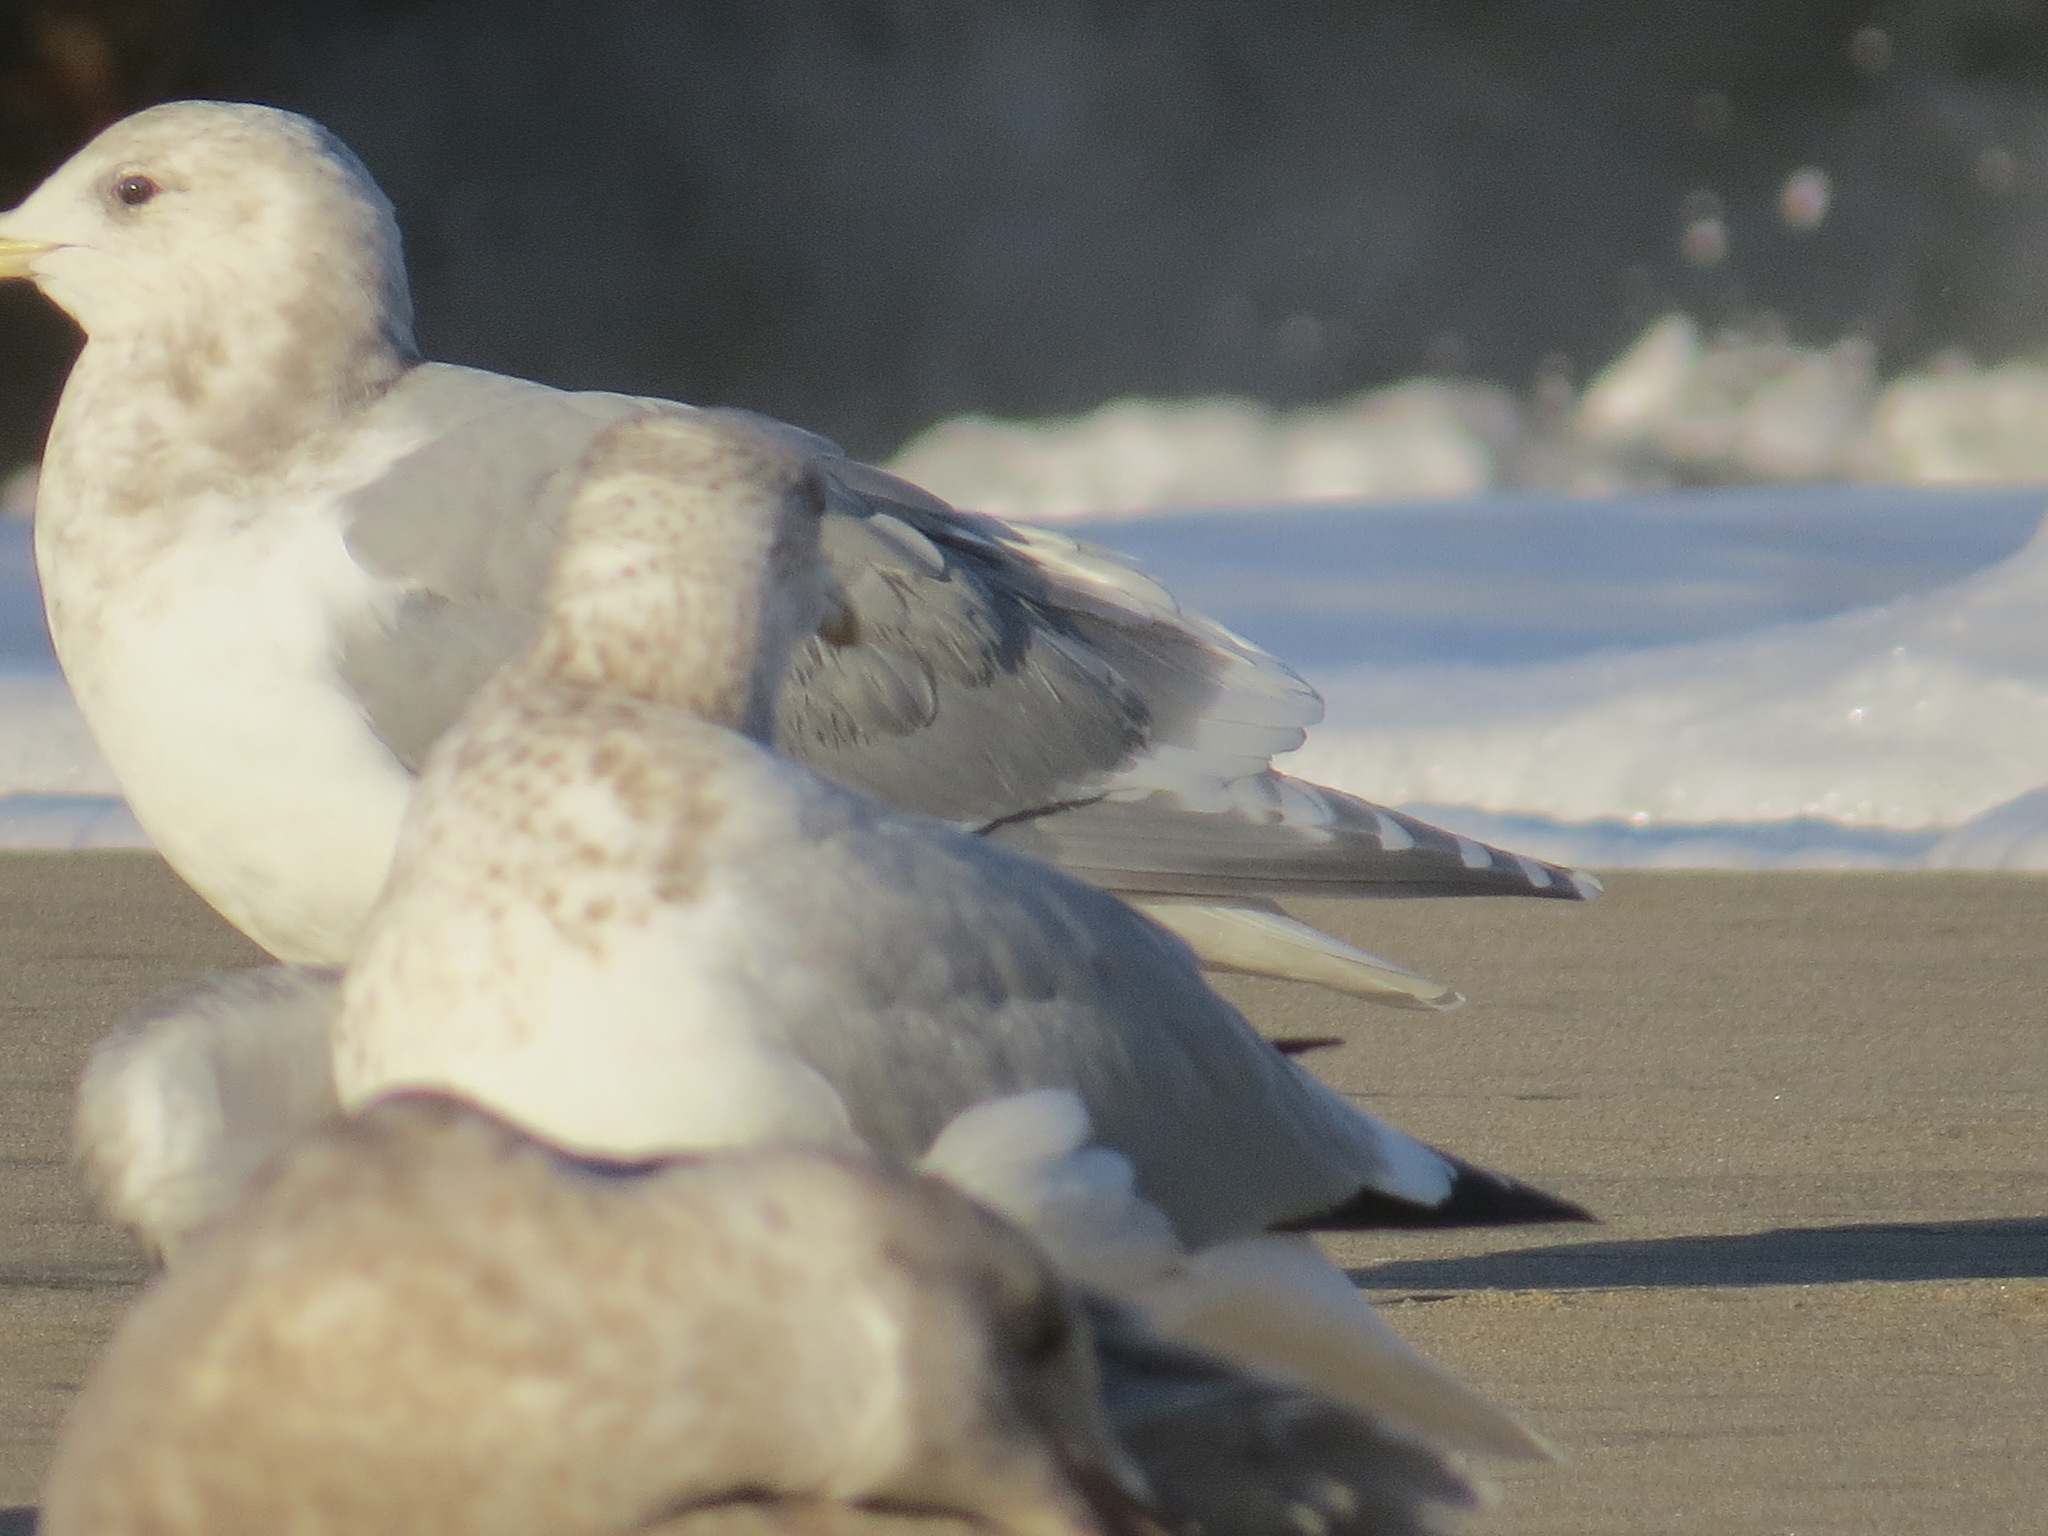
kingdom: Animalia
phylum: Chordata
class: Aves
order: Charadriiformes
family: Laridae
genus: Larus
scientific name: Larus glaucescens
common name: Glaucous-winged gull
